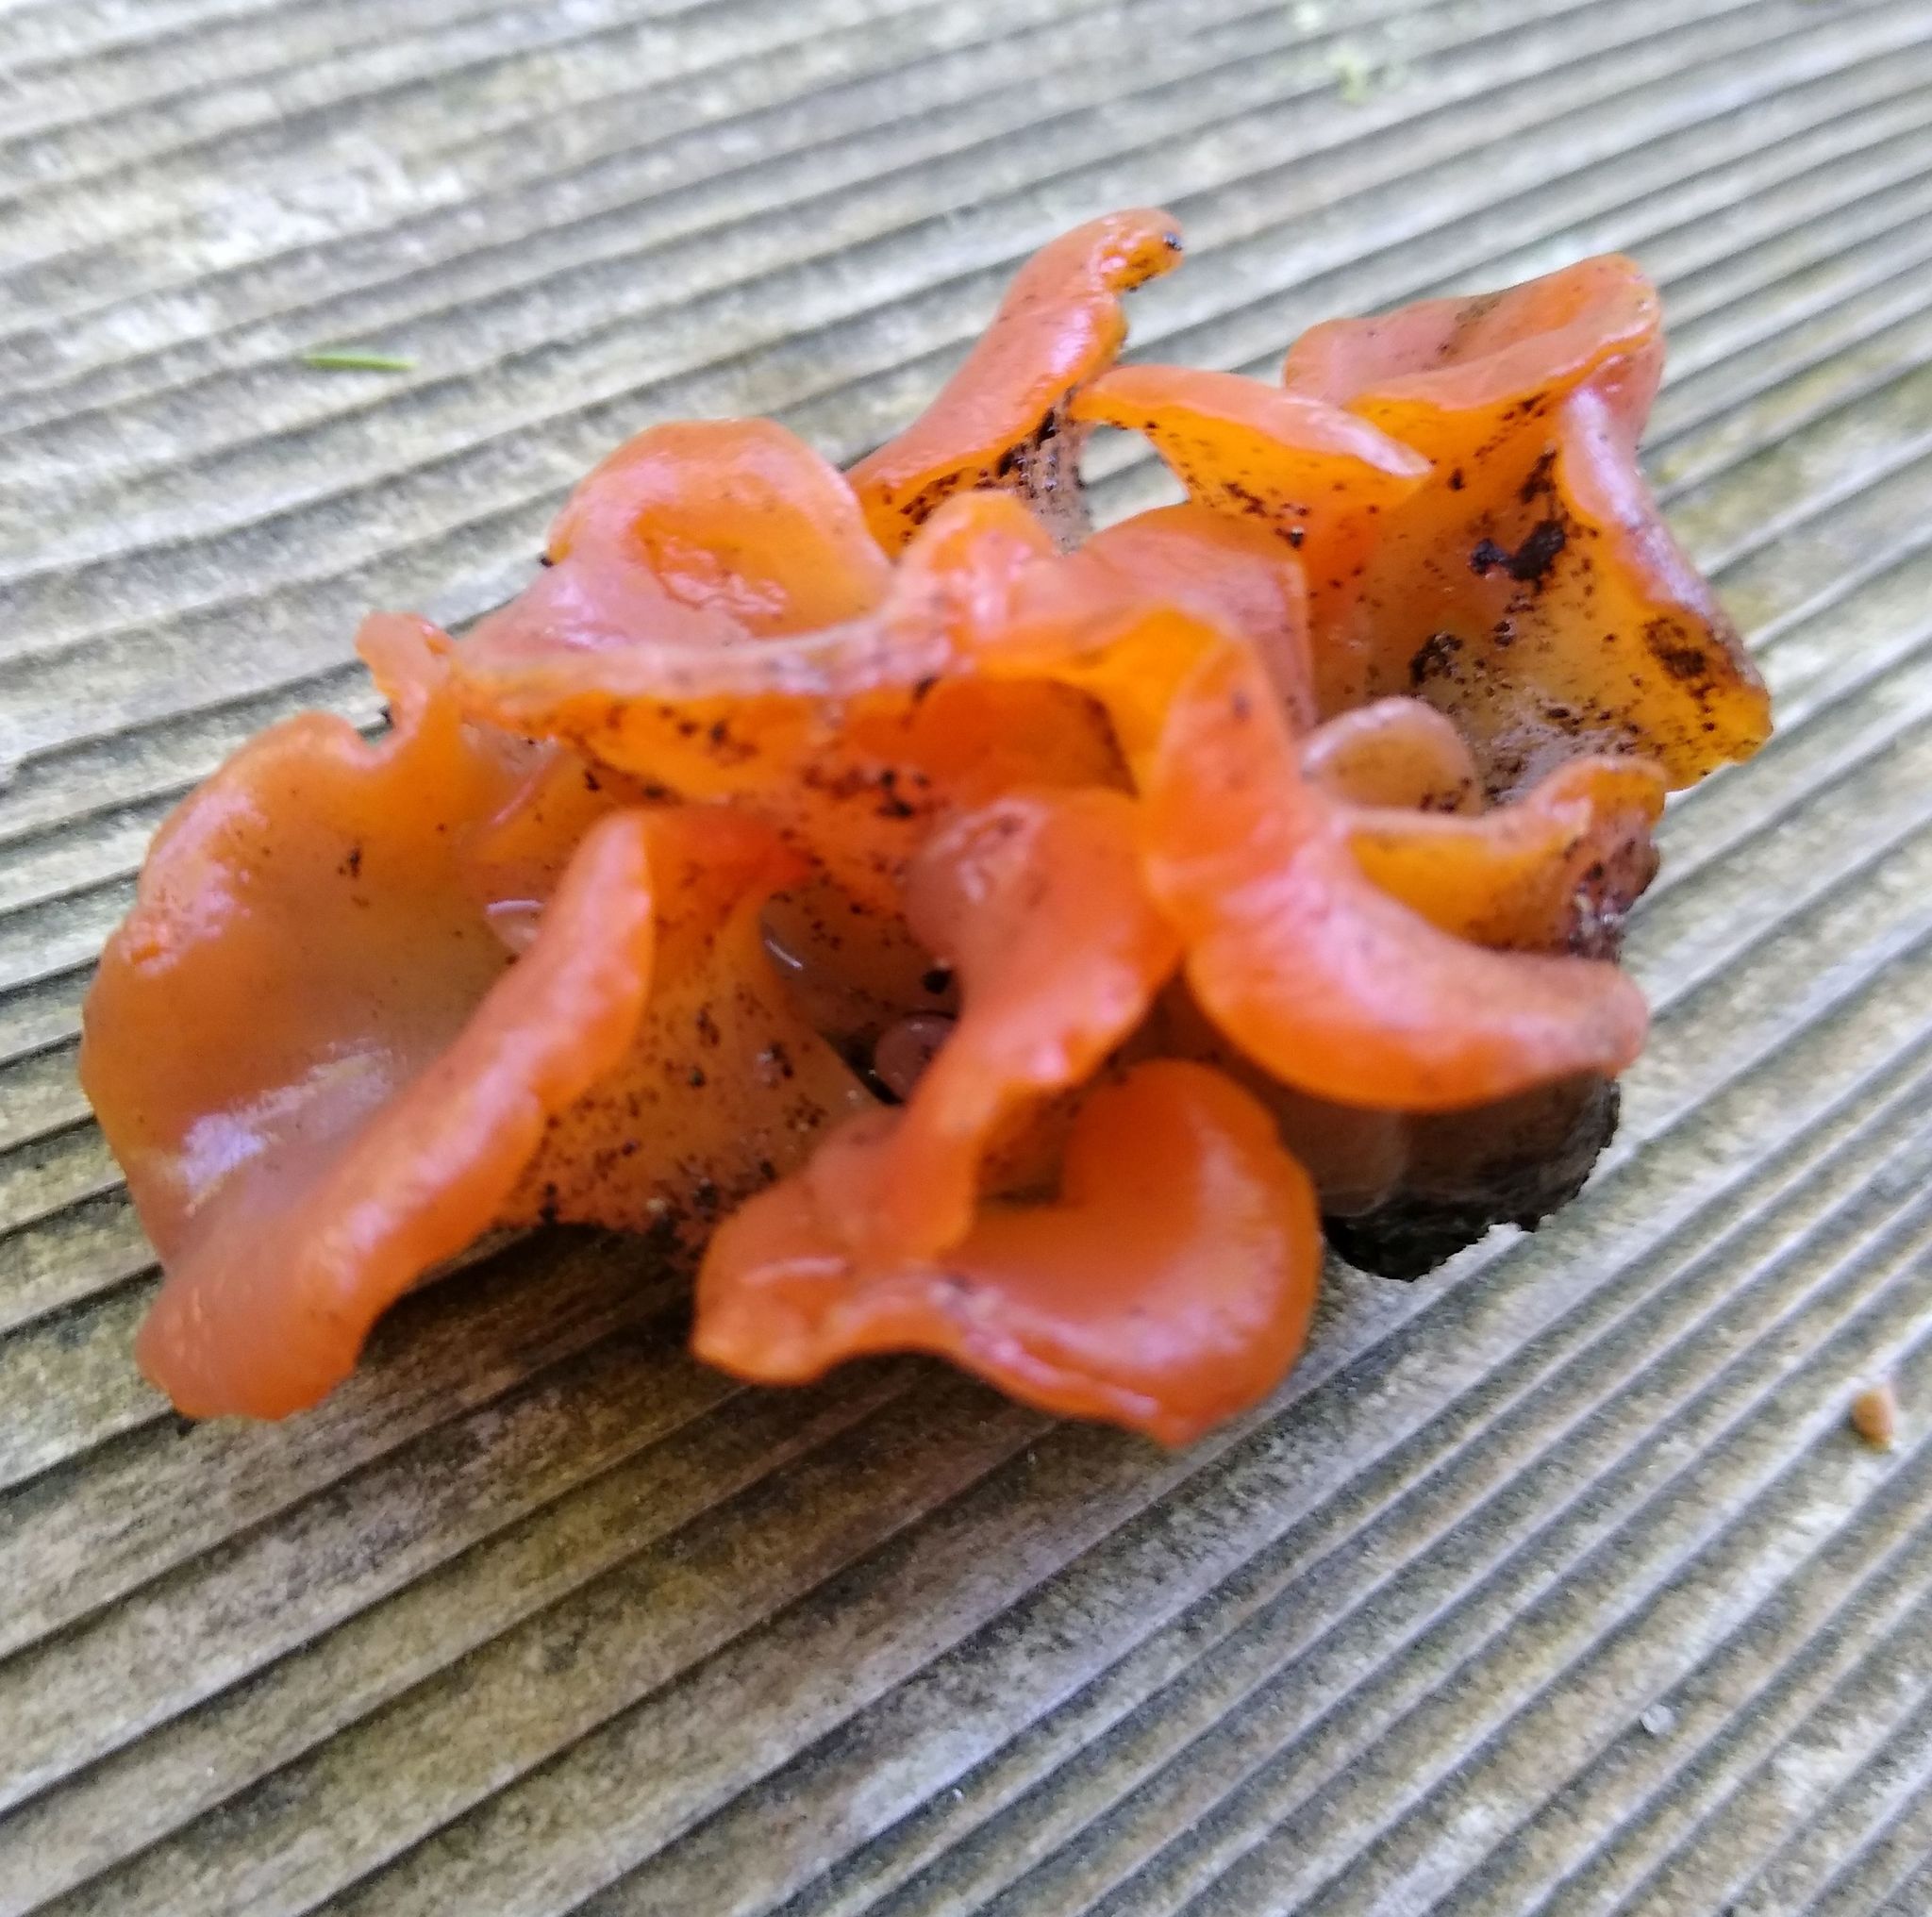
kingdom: Fungi
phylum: Basidiomycota
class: Agaricomycetes
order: Auriculariales
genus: Guepinia
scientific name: Guepinia helvelloides
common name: Salmon salad
